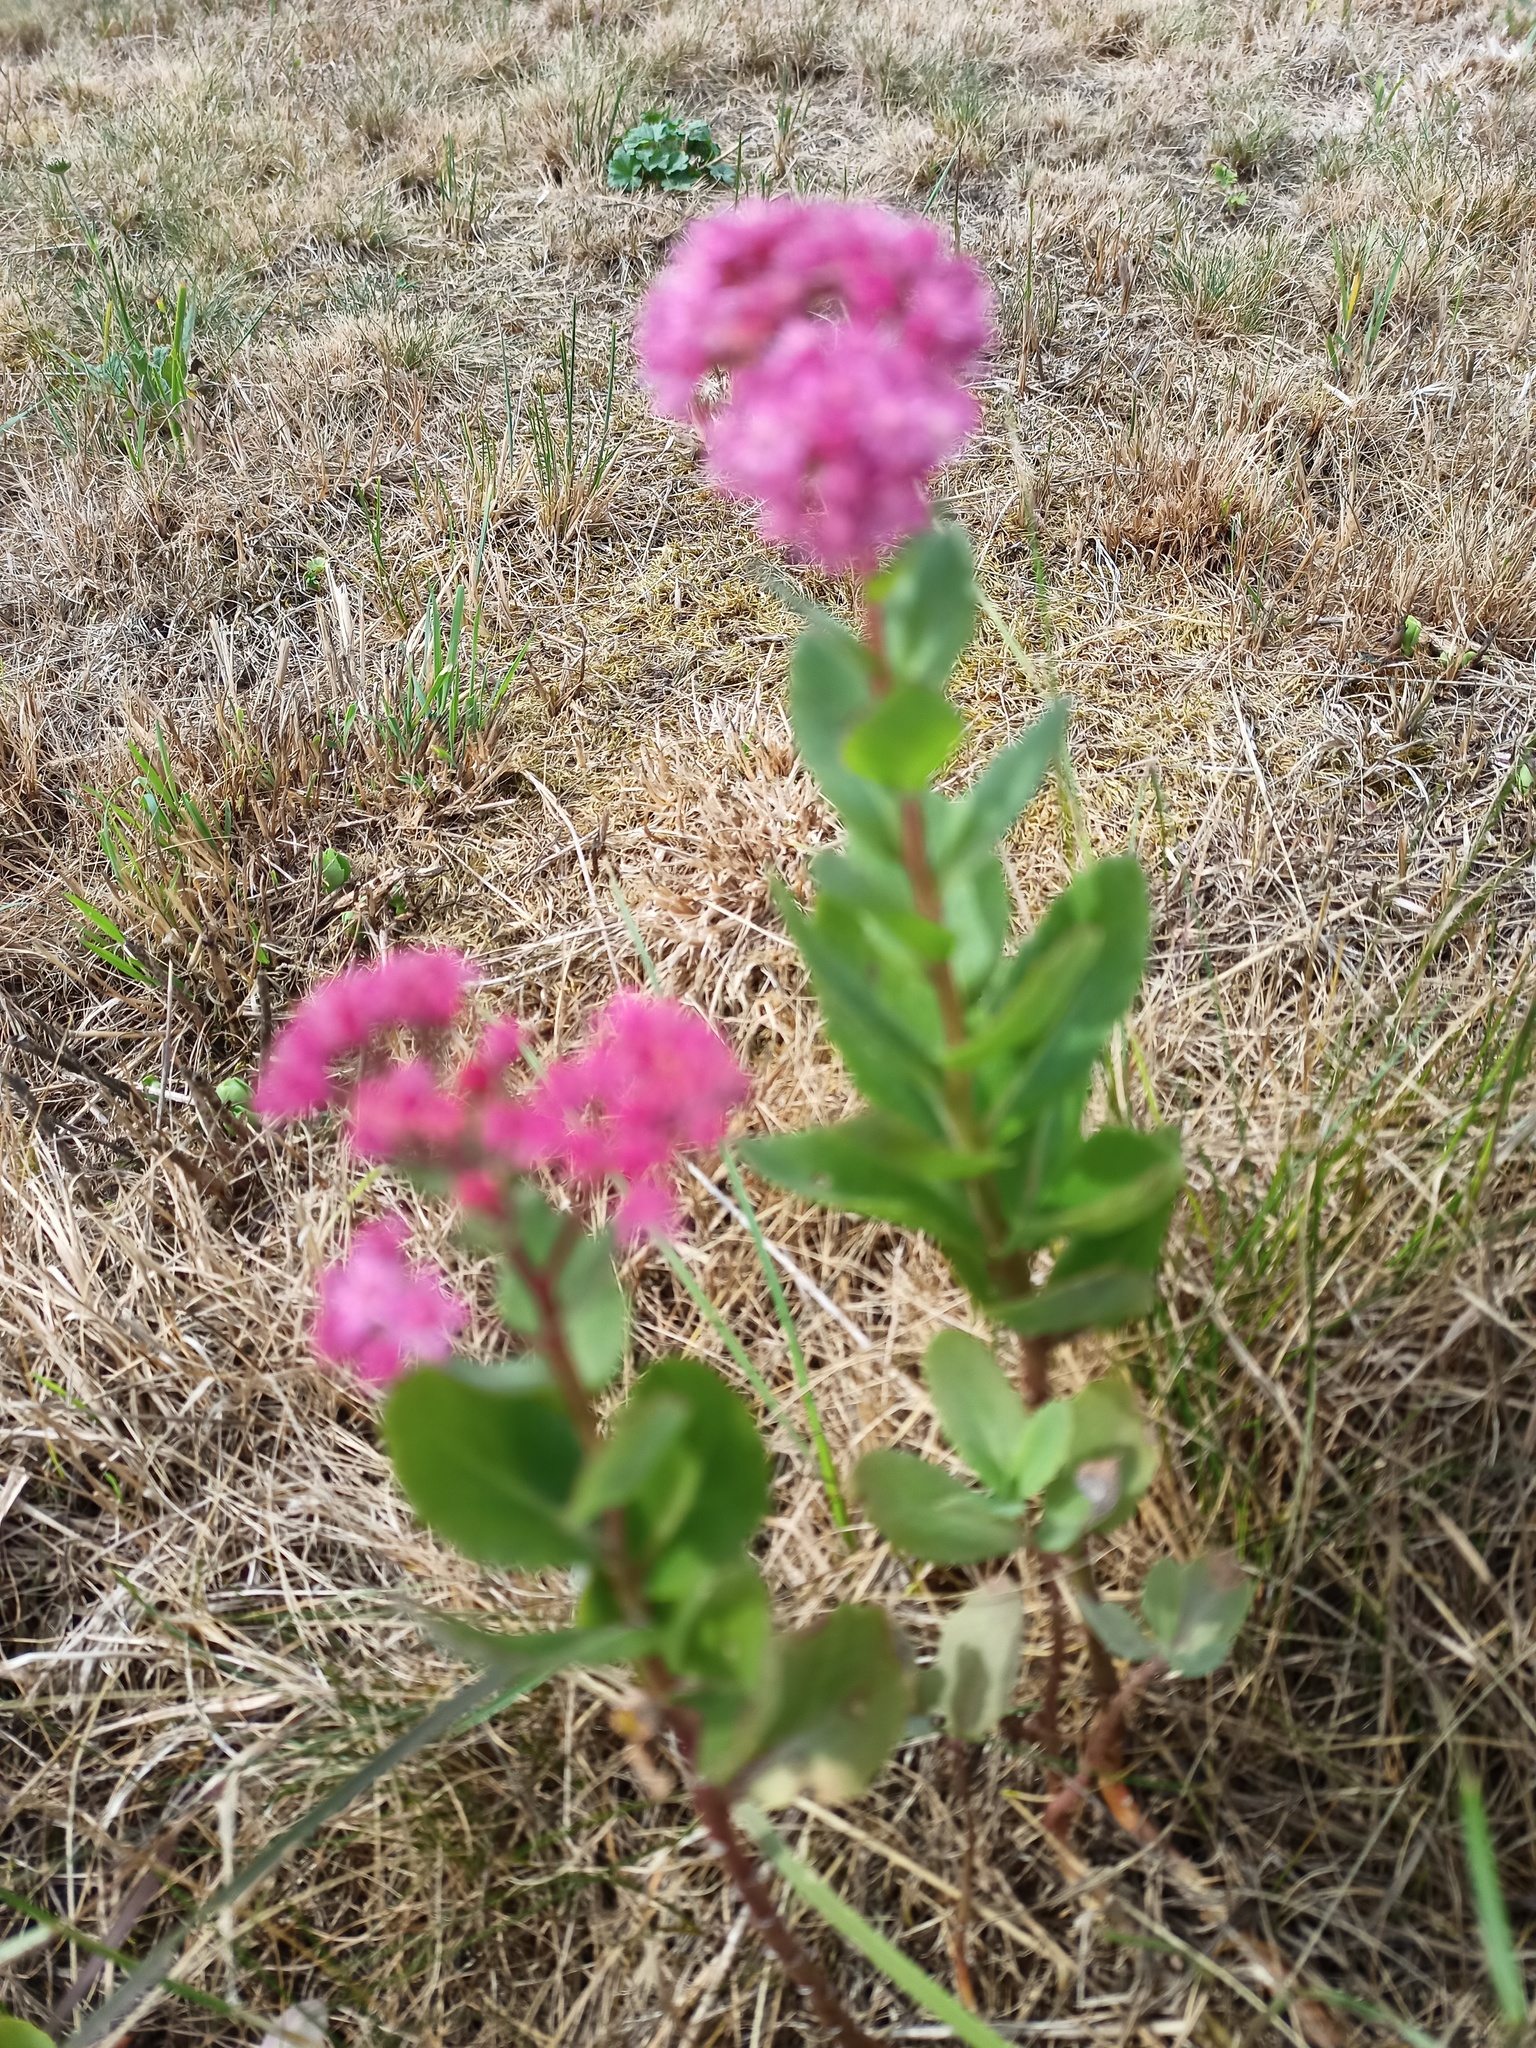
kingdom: Plantae
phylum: Tracheophyta
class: Magnoliopsida
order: Saxifragales
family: Crassulaceae
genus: Hylotelephium
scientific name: Hylotelephium telephium
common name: Live-forever
